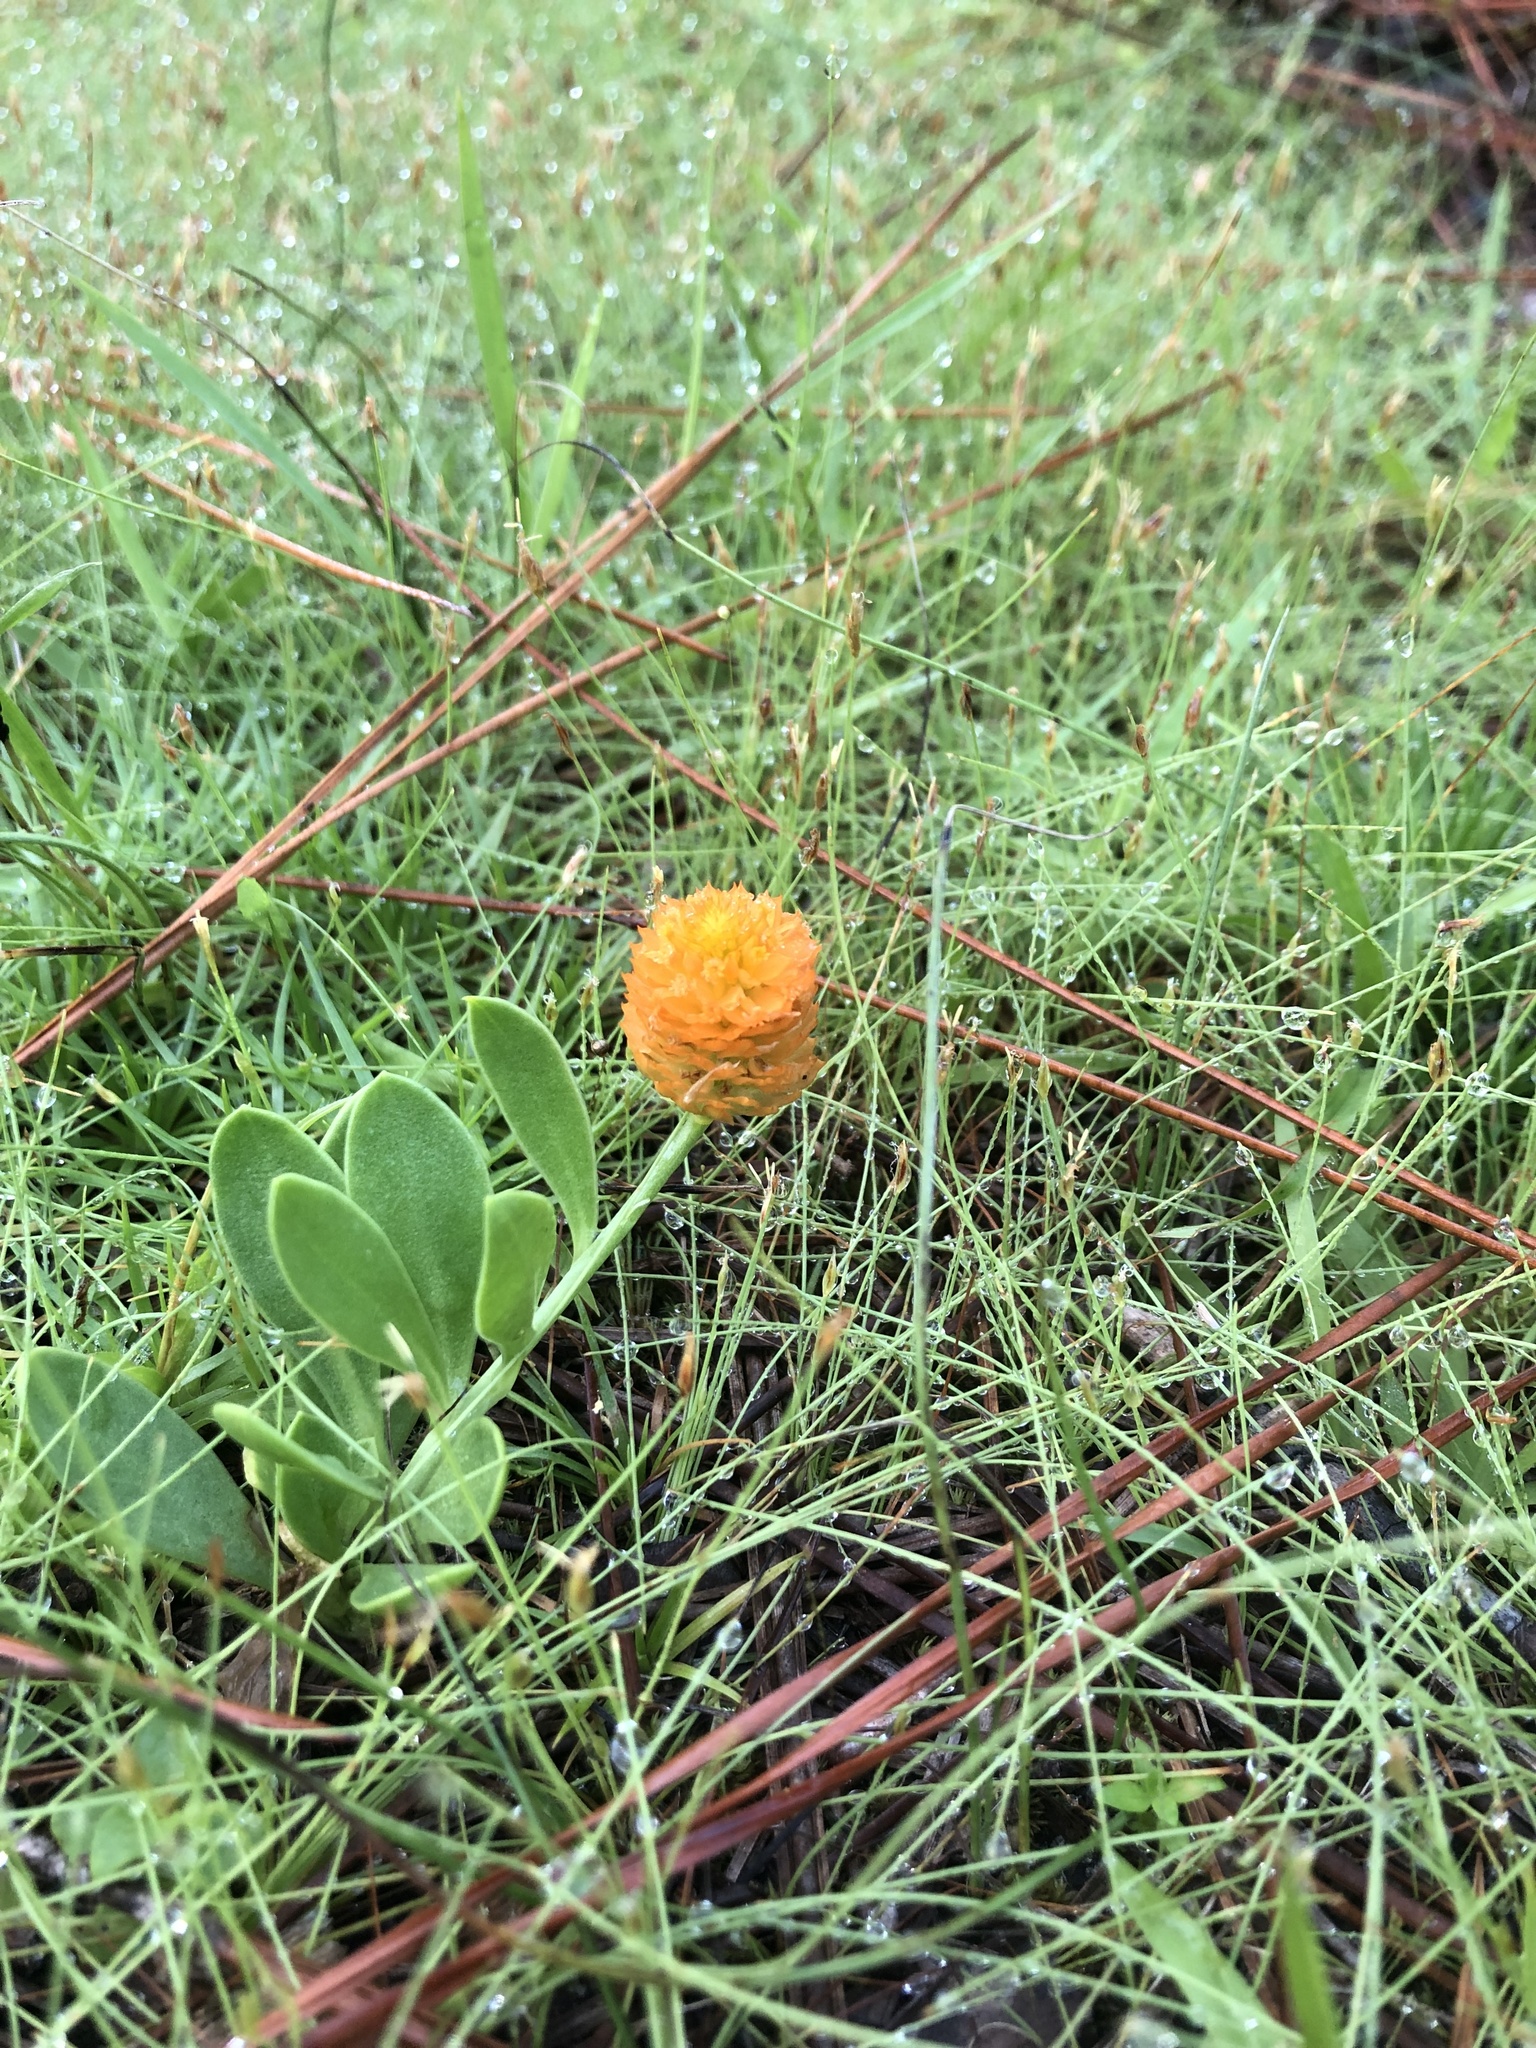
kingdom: Plantae
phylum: Tracheophyta
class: Magnoliopsida
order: Fabales
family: Polygalaceae
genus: Polygala
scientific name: Polygala lutea
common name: Orange milkwort
